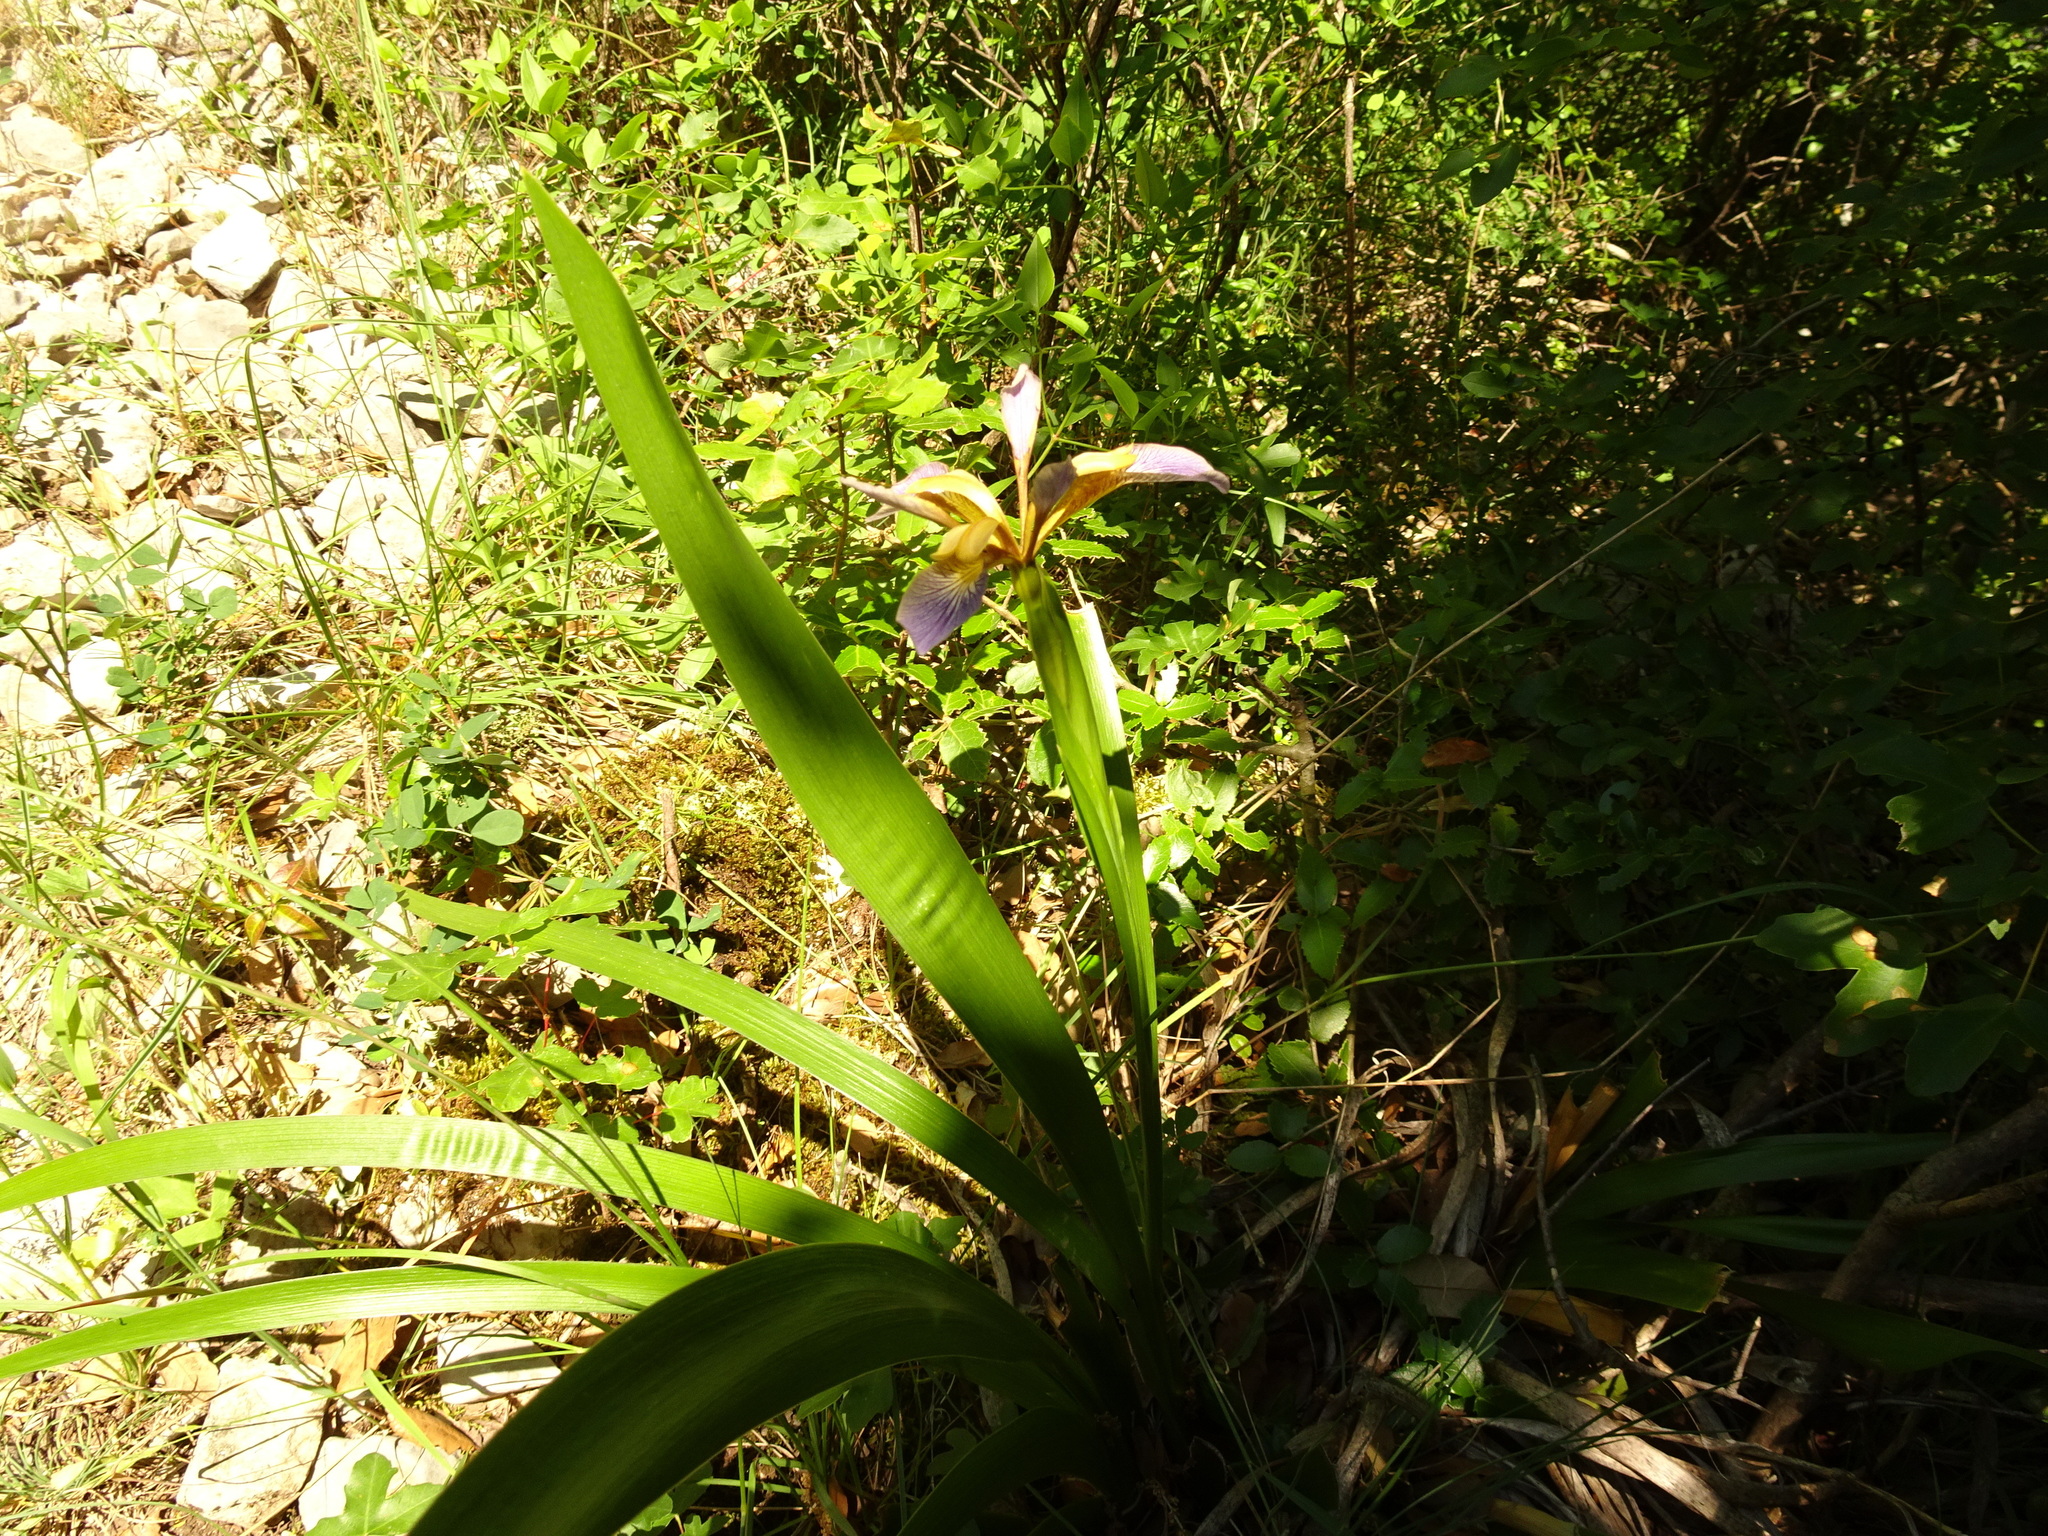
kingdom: Plantae
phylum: Tracheophyta
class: Liliopsida
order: Asparagales
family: Iridaceae
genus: Iris
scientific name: Iris foetidissima
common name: Stinking iris
